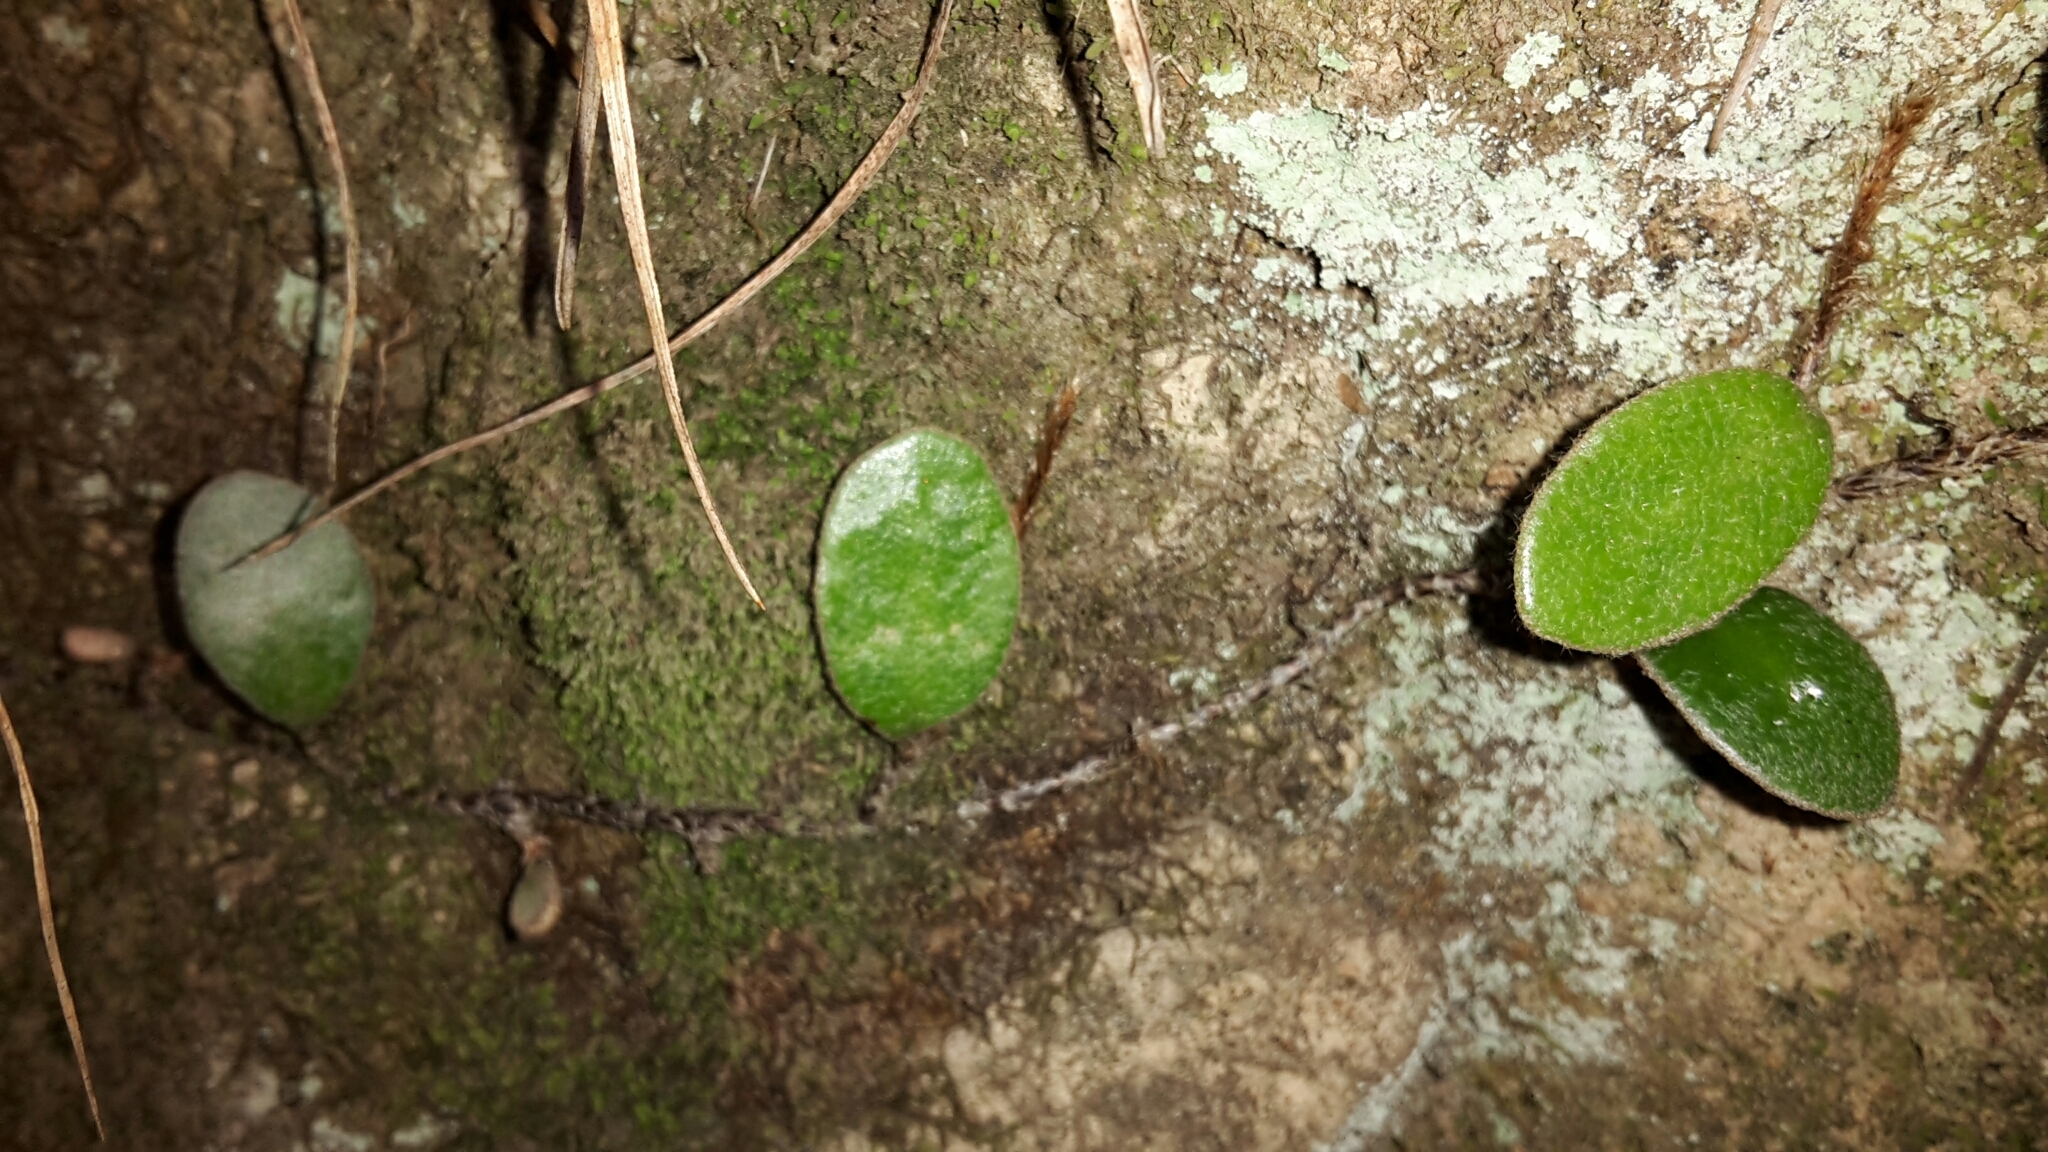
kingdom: Plantae
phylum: Tracheophyta
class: Polypodiopsida
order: Polypodiales
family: Polypodiaceae
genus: Pyrrosia
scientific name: Pyrrosia eleagnifolia
